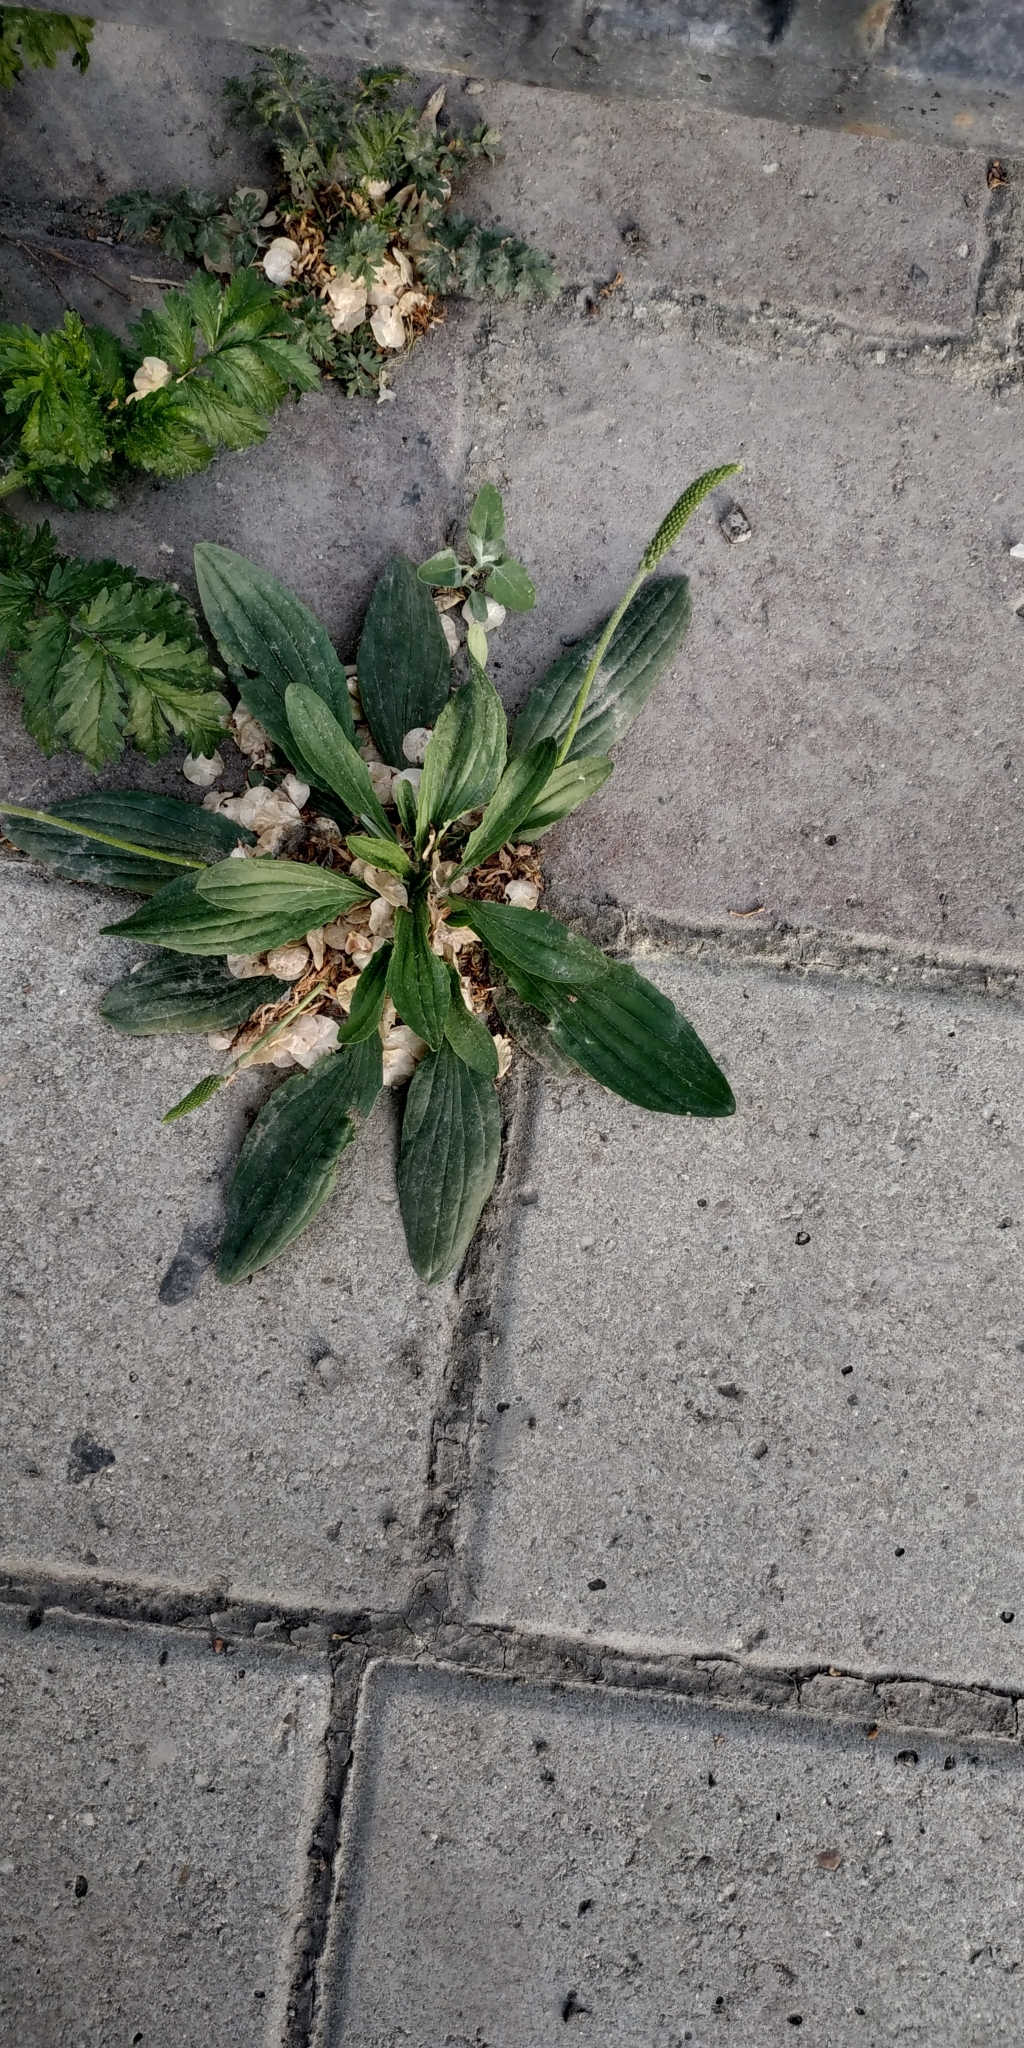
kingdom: Plantae
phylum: Tracheophyta
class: Magnoliopsida
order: Lamiales
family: Plantaginaceae
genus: Plantago
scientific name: Plantago depressa
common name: Depressed plantain
